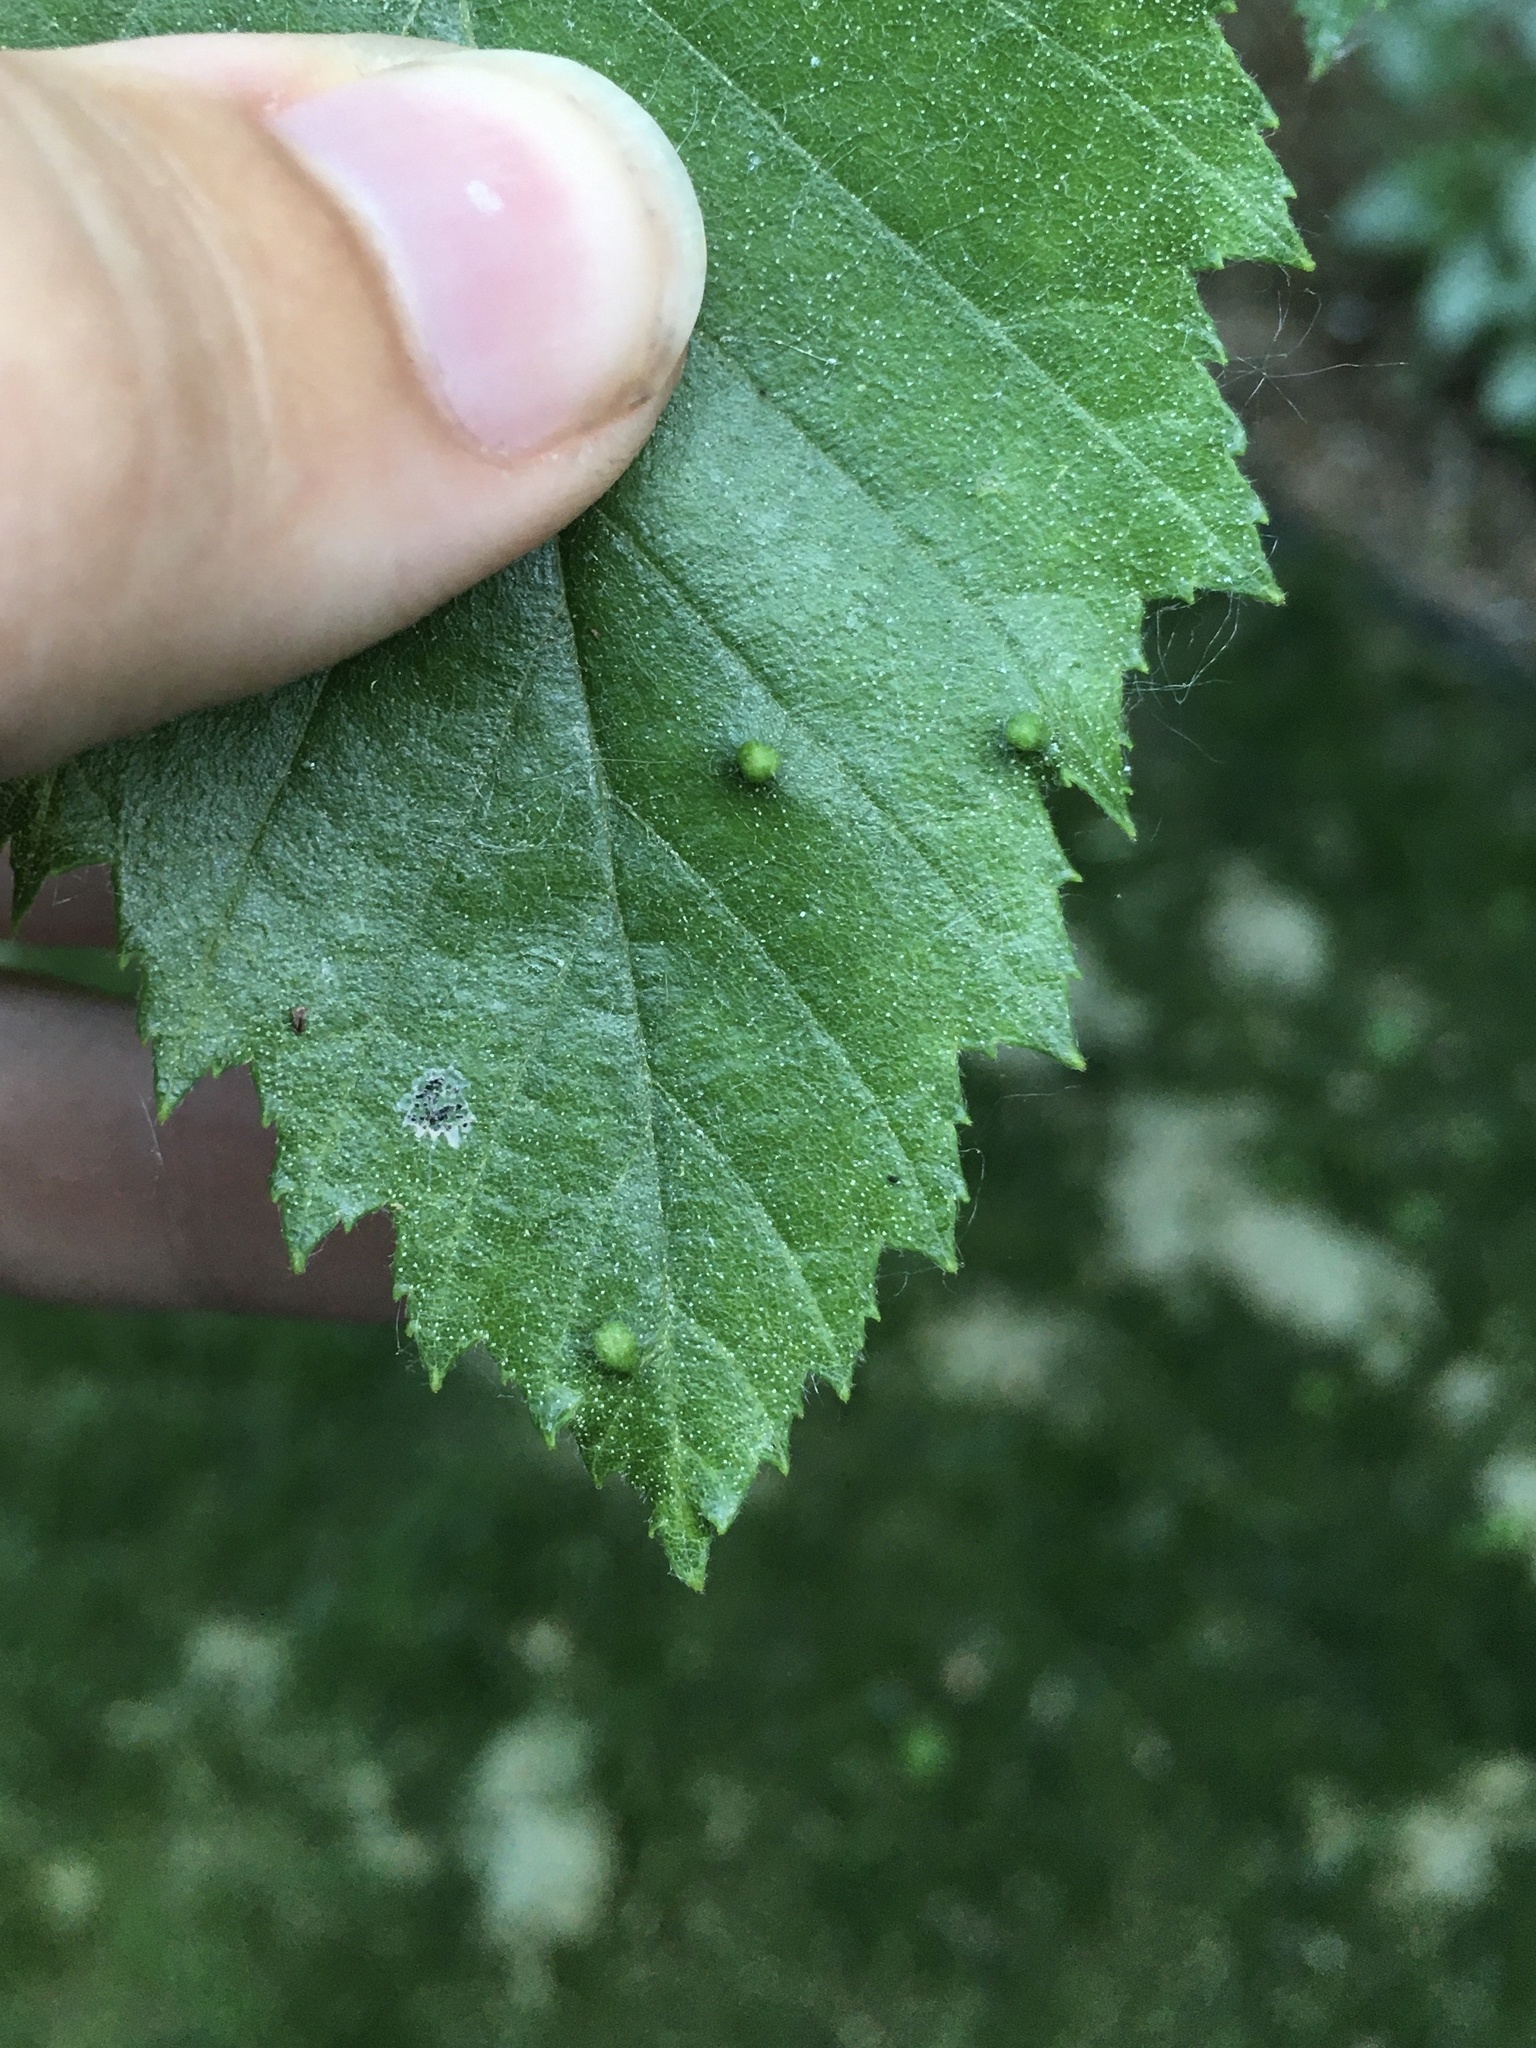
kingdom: Animalia
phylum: Arthropoda
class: Arachnida
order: Trombidiformes
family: Eriophyidae
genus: Aculus
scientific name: Aculus leionotus
